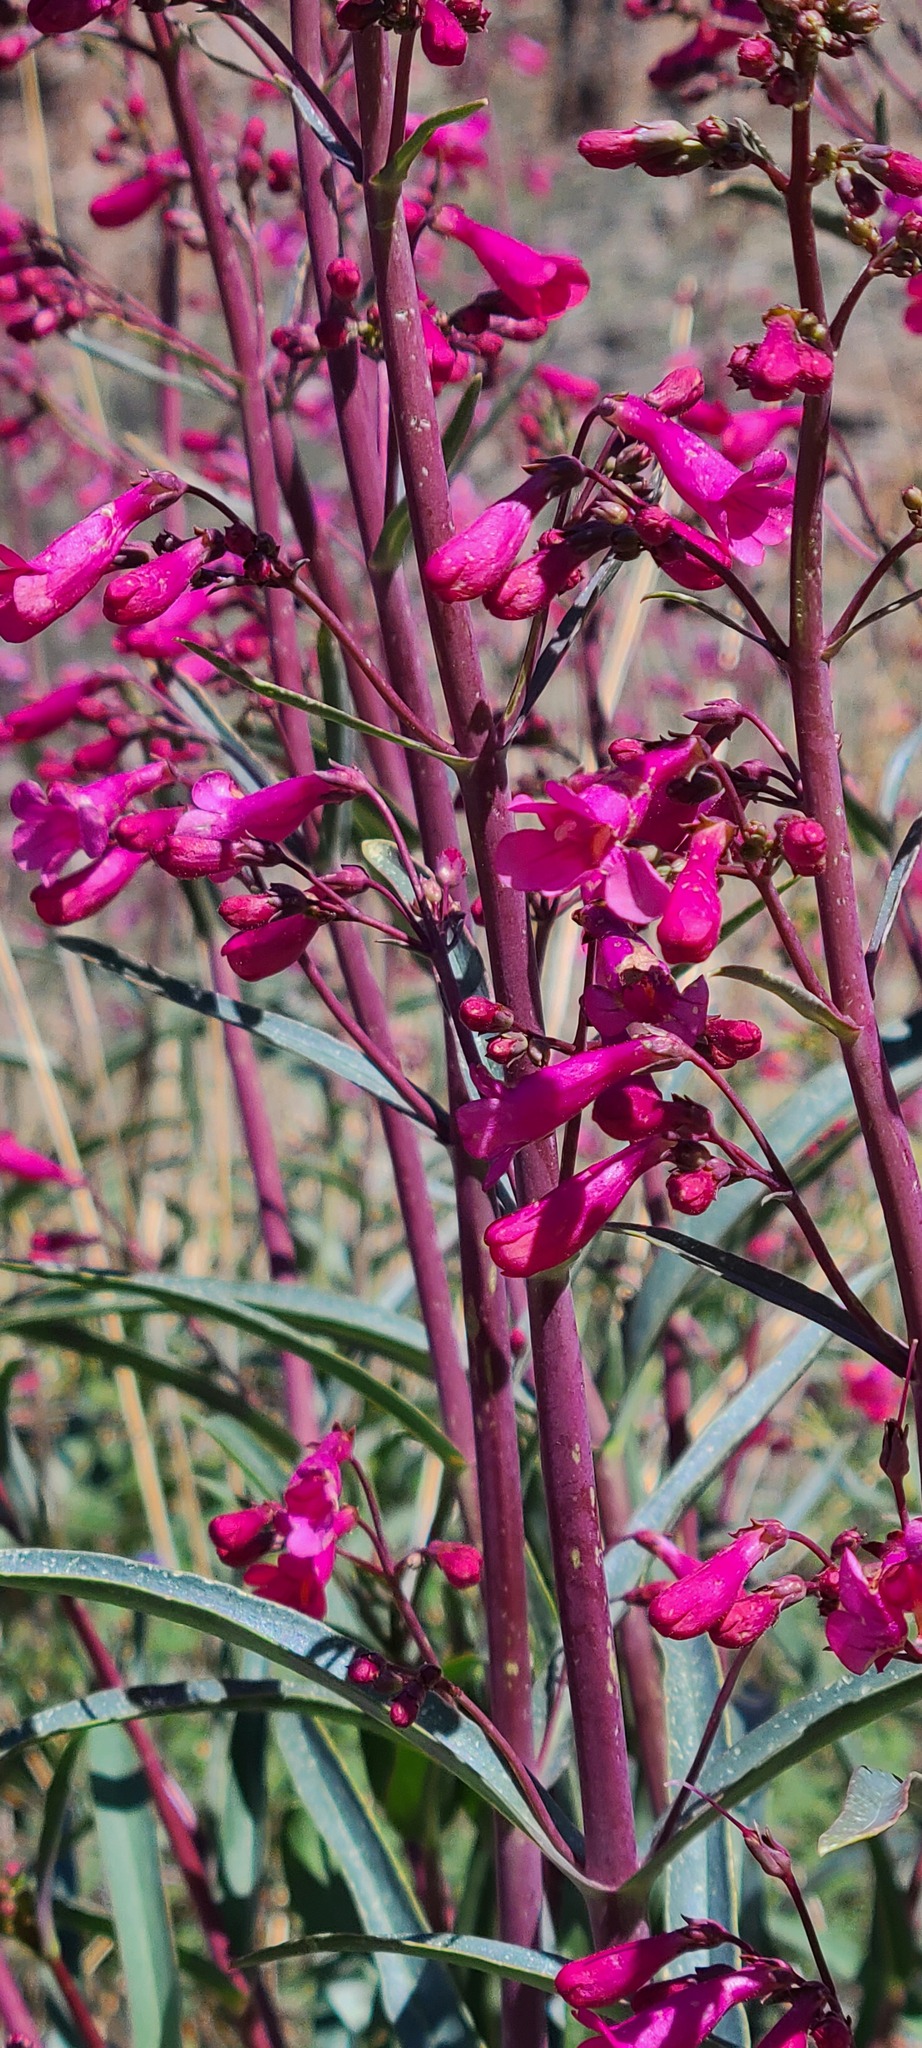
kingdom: Plantae
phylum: Tracheophyta
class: Magnoliopsida
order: Lamiales
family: Plantaginaceae
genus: Penstemon
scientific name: Penstemon parryi
